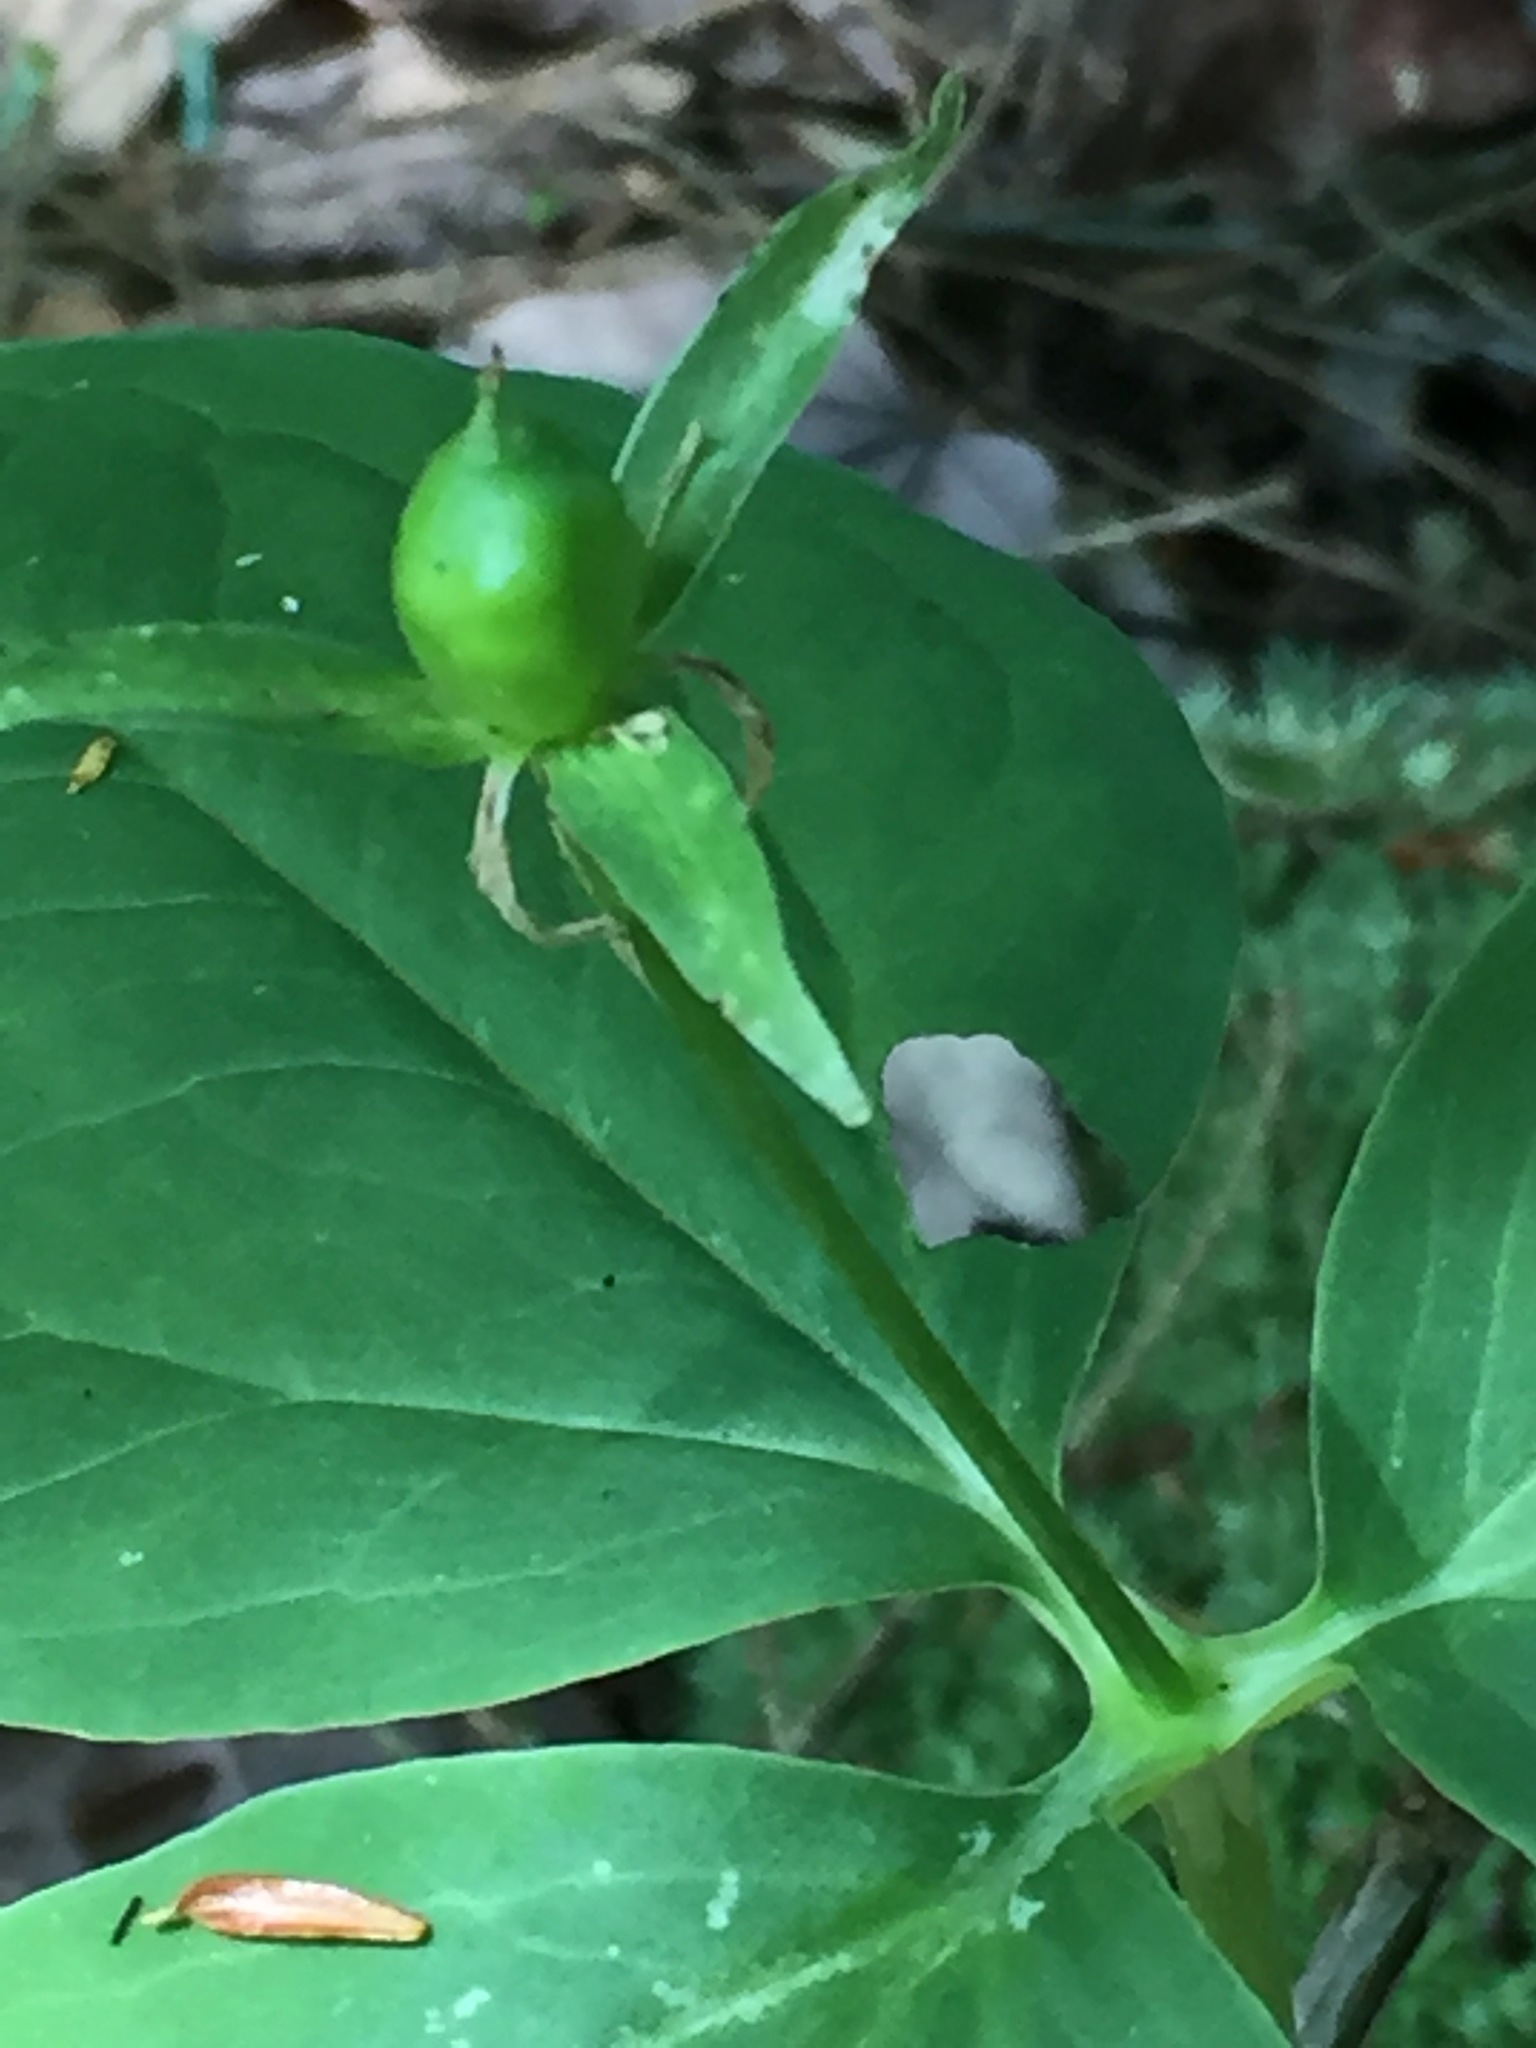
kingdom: Plantae
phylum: Tracheophyta
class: Liliopsida
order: Liliales
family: Melanthiaceae
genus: Trillium
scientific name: Trillium undulatum
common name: Paint trillium
